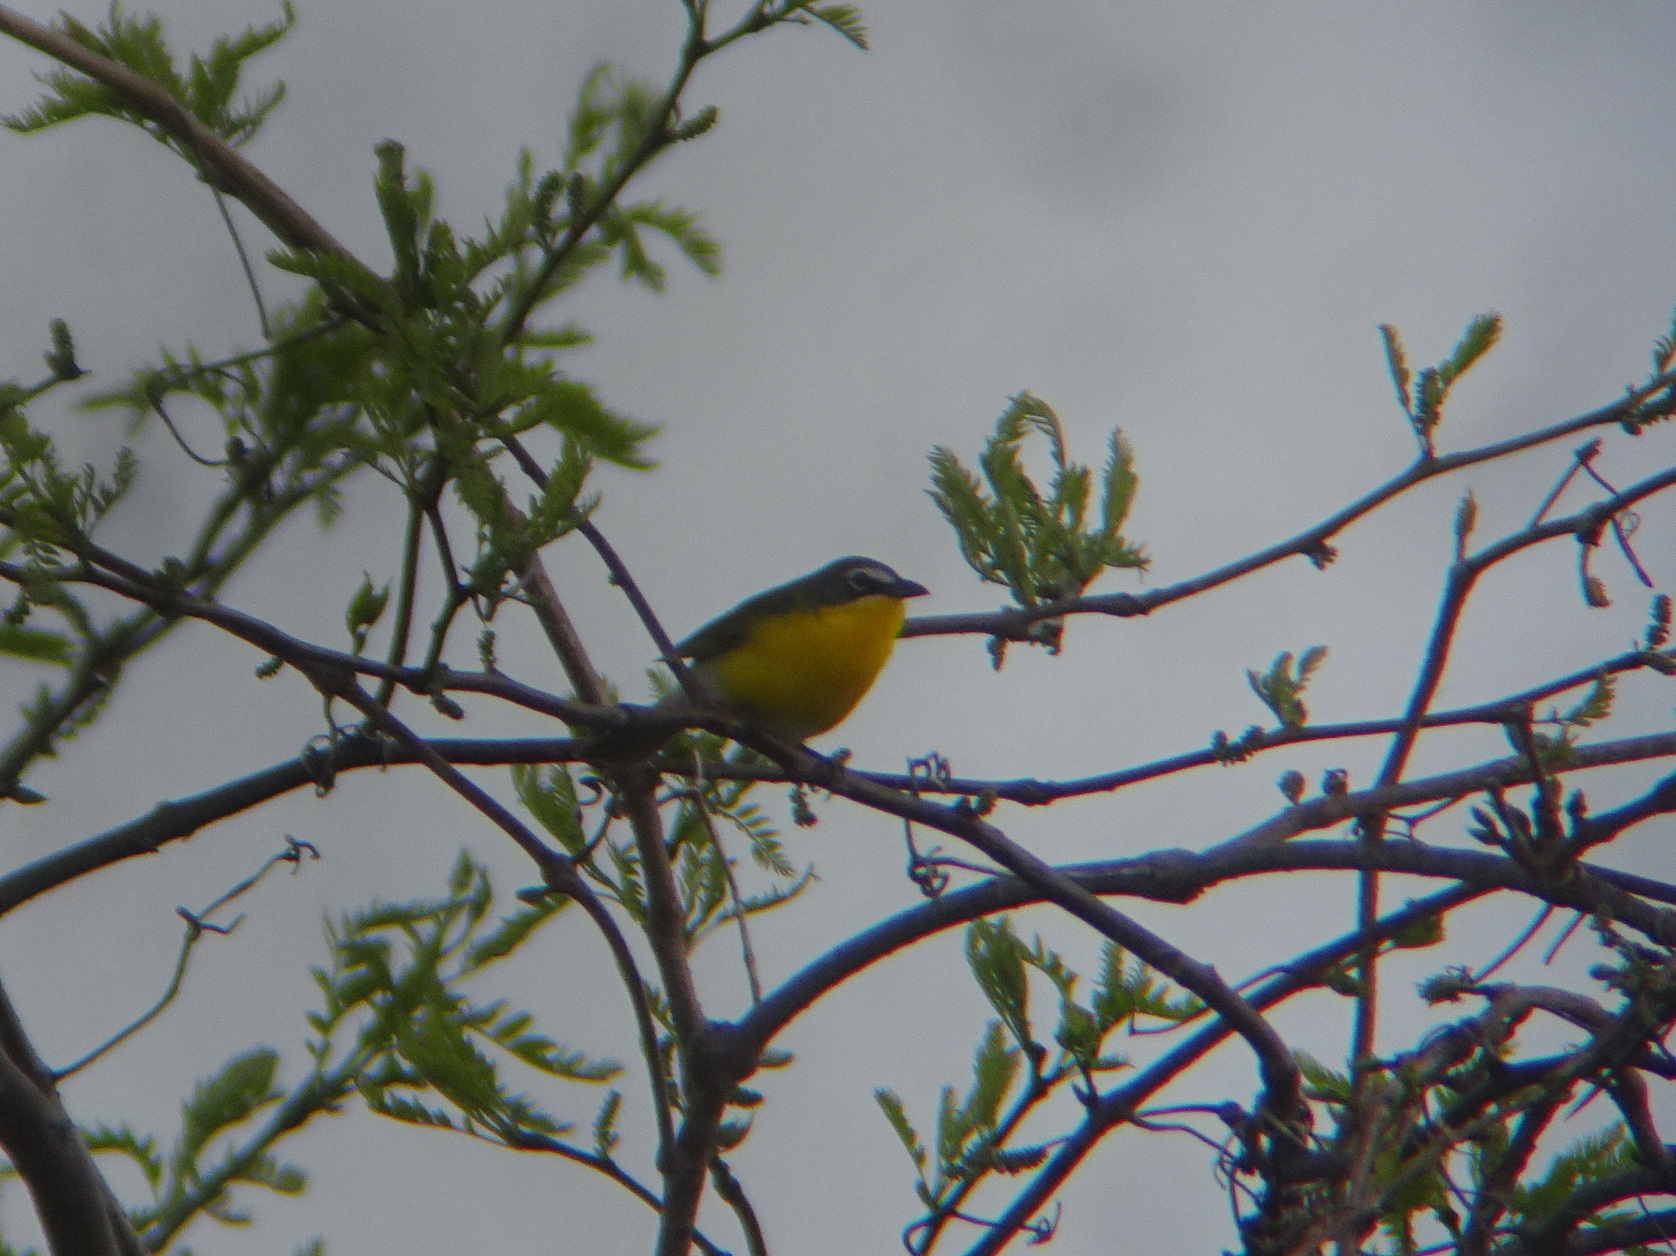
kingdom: Animalia
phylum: Chordata
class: Aves
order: Passeriformes
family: Parulidae
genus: Icteria
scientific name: Icteria virens
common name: Yellow-breasted chat
